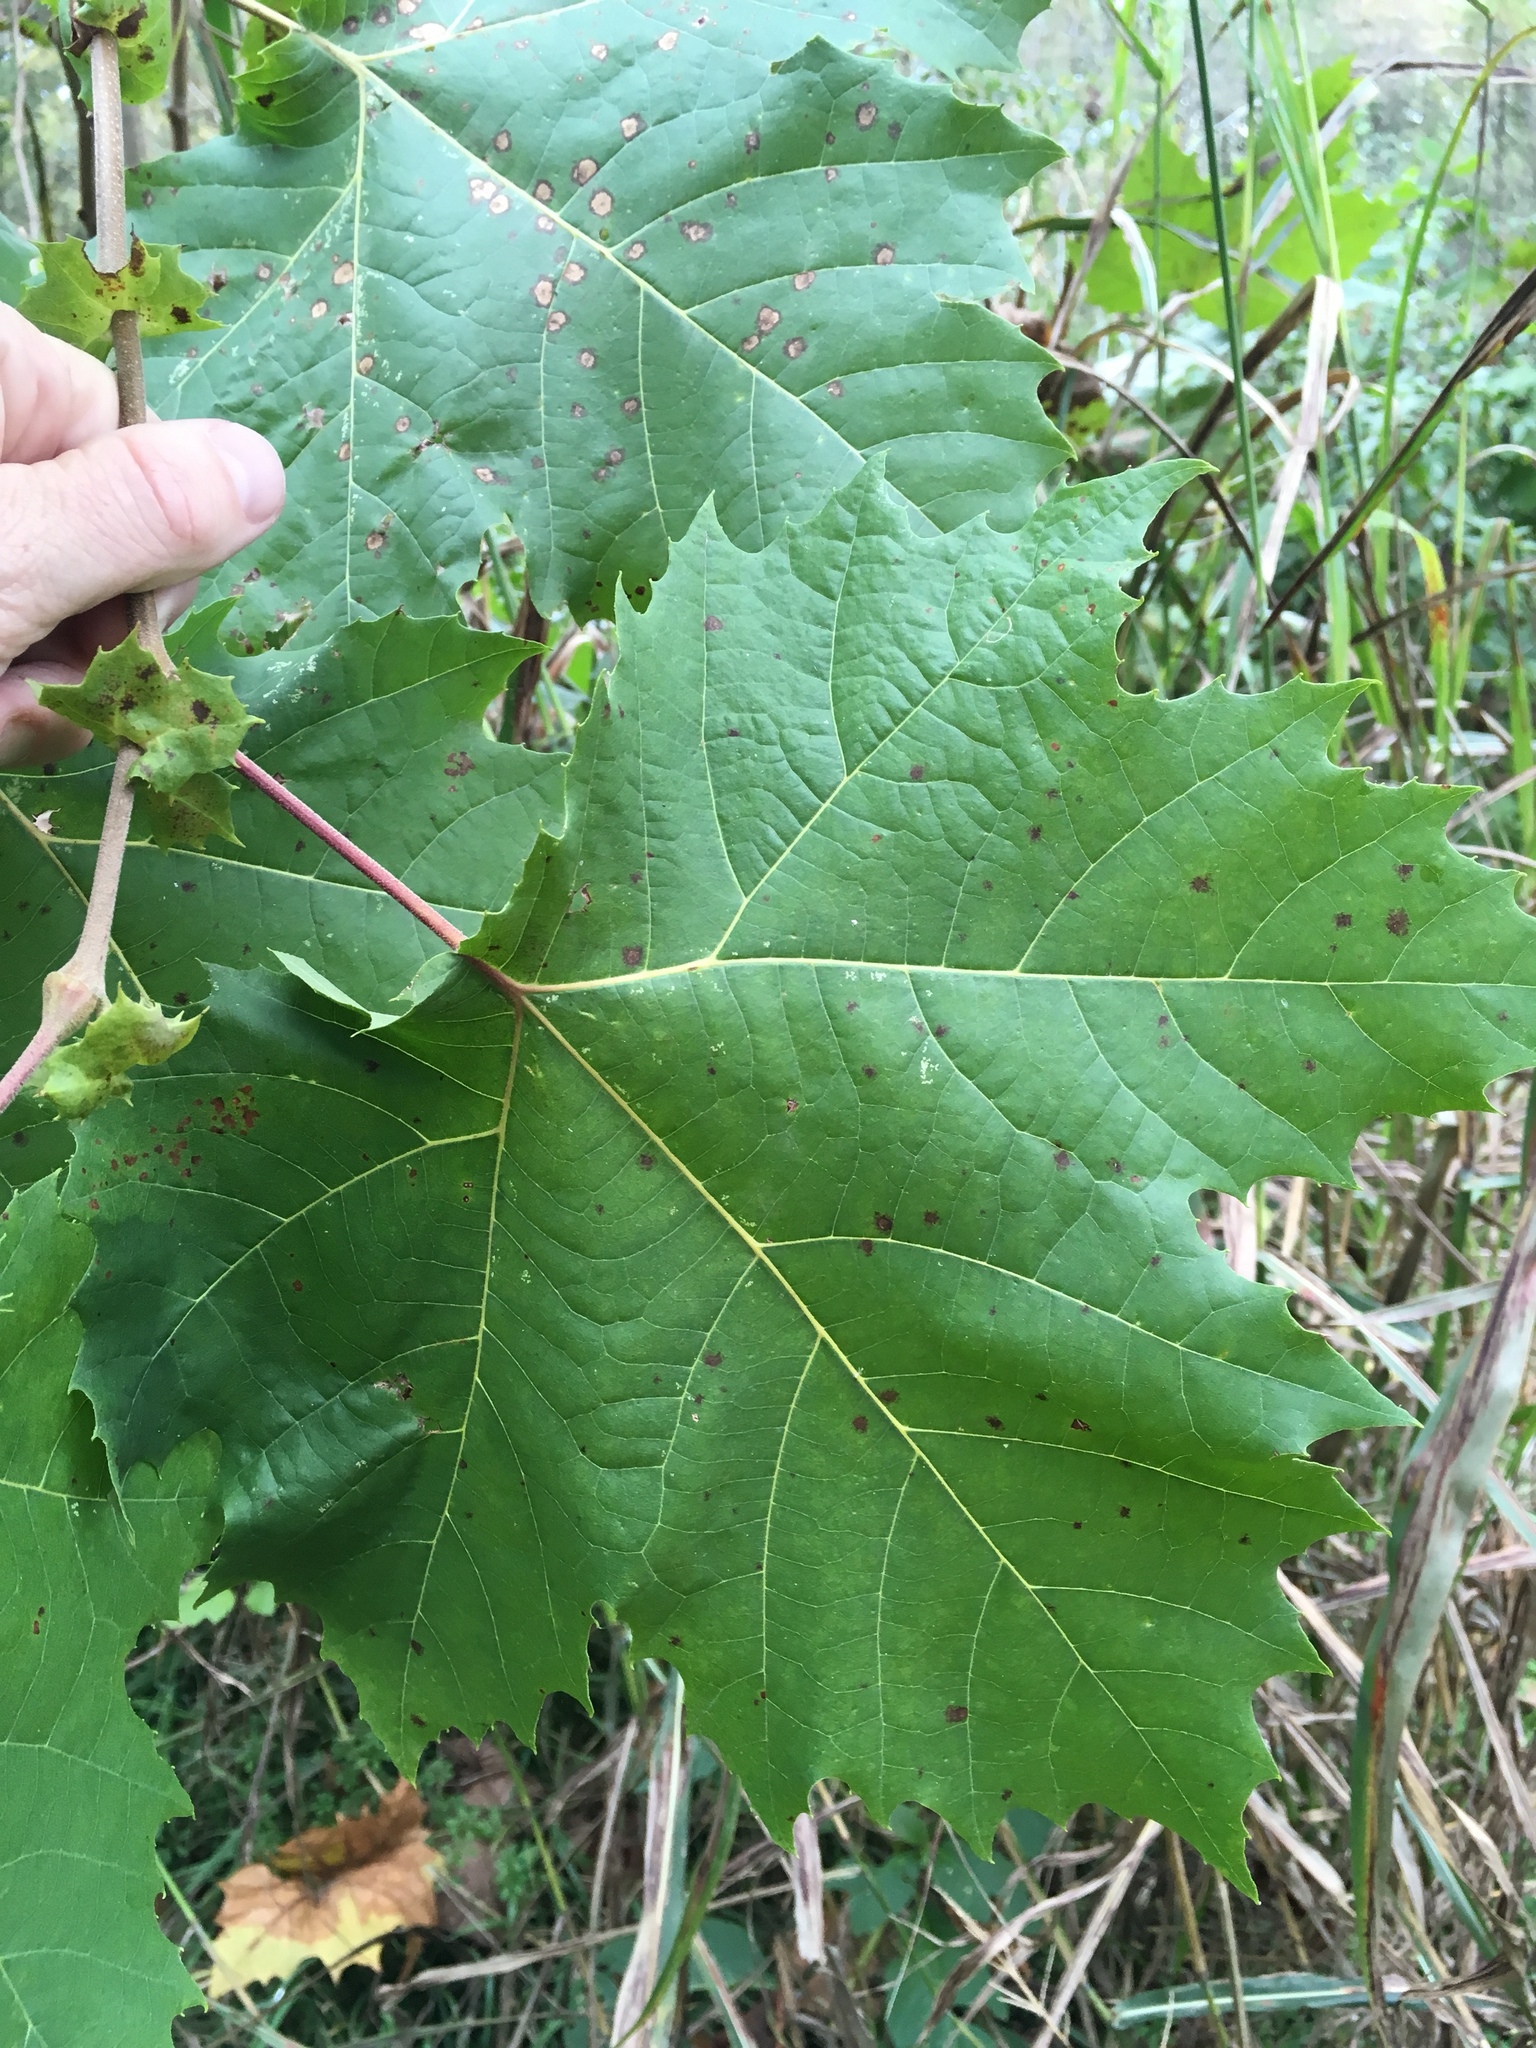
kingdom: Plantae
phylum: Tracheophyta
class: Magnoliopsida
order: Proteales
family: Platanaceae
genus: Platanus
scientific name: Platanus occidentalis
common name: American sycamore
